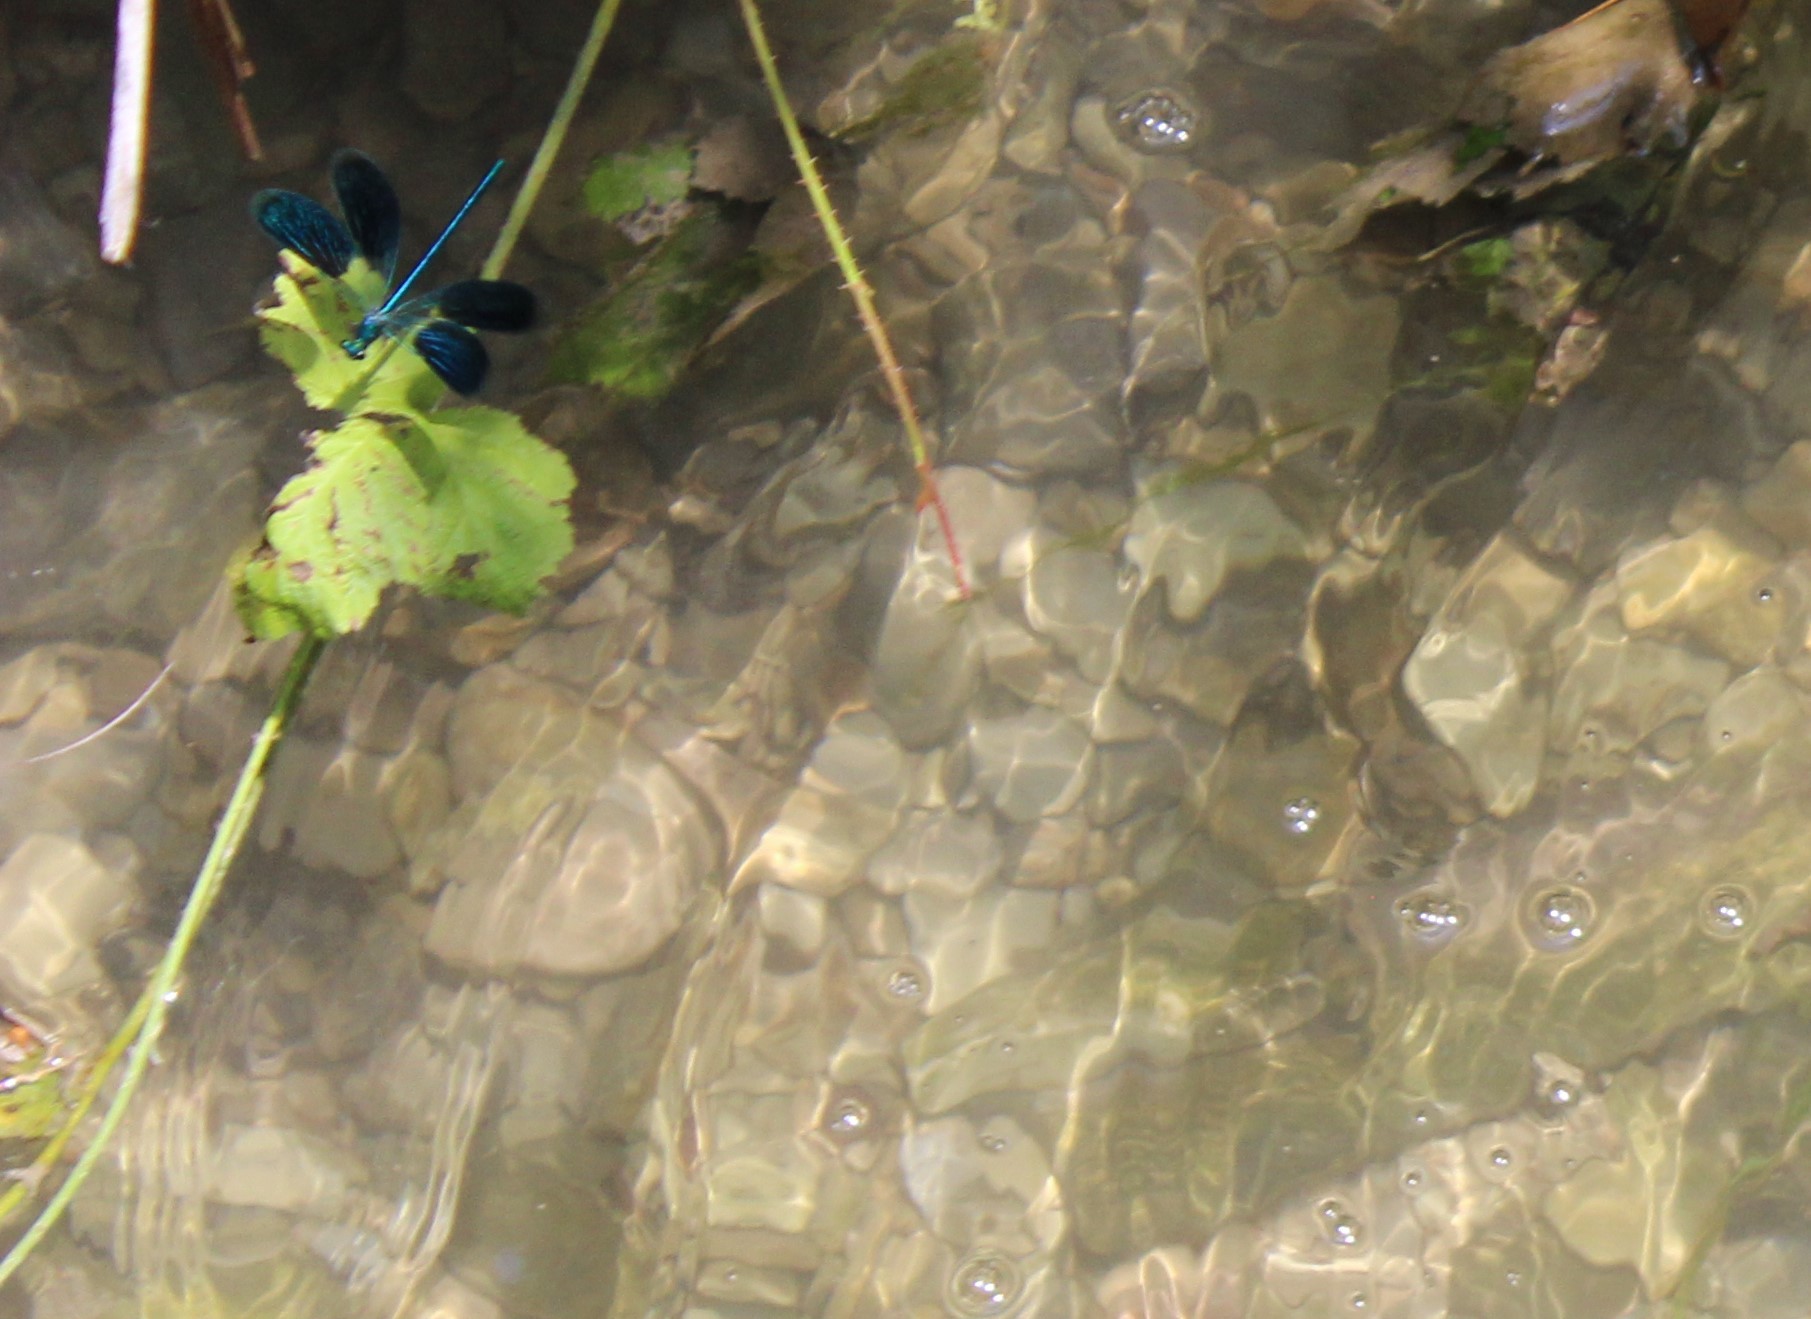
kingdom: Animalia
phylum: Arthropoda
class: Insecta
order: Odonata
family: Calopterygidae
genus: Calopteryx
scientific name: Calopteryx splendens
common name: Banded demoiselle
